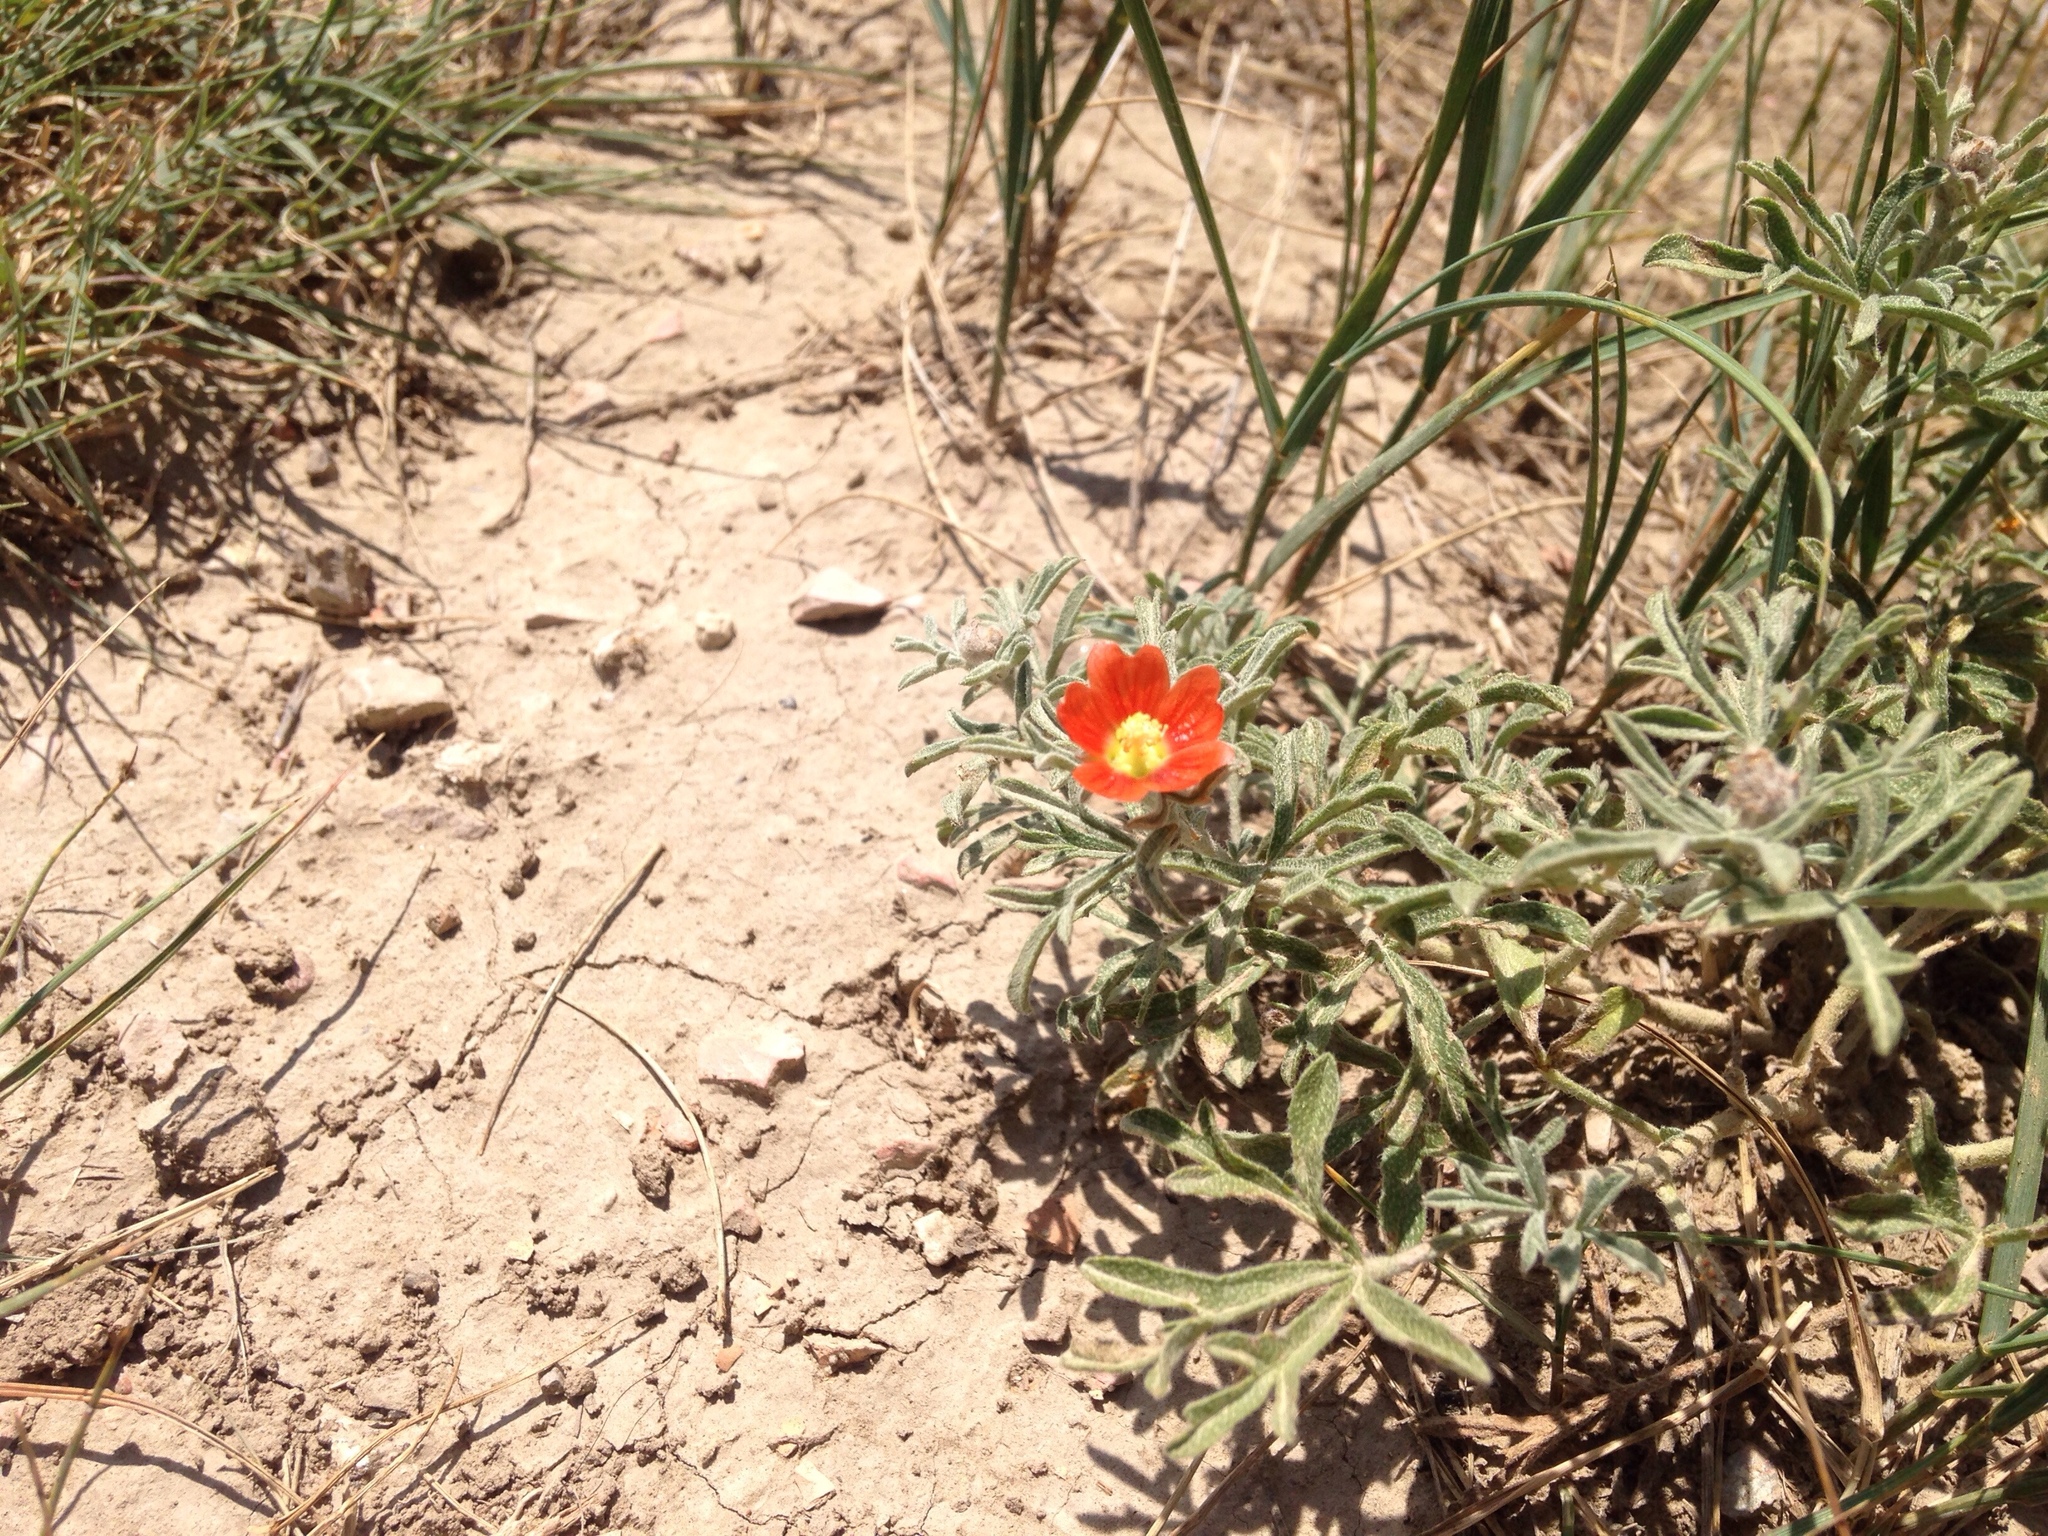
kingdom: Plantae
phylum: Tracheophyta
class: Magnoliopsida
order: Malvales
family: Malvaceae
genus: Sphaeralcea
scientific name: Sphaeralcea coccinea
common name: Moss-rose
